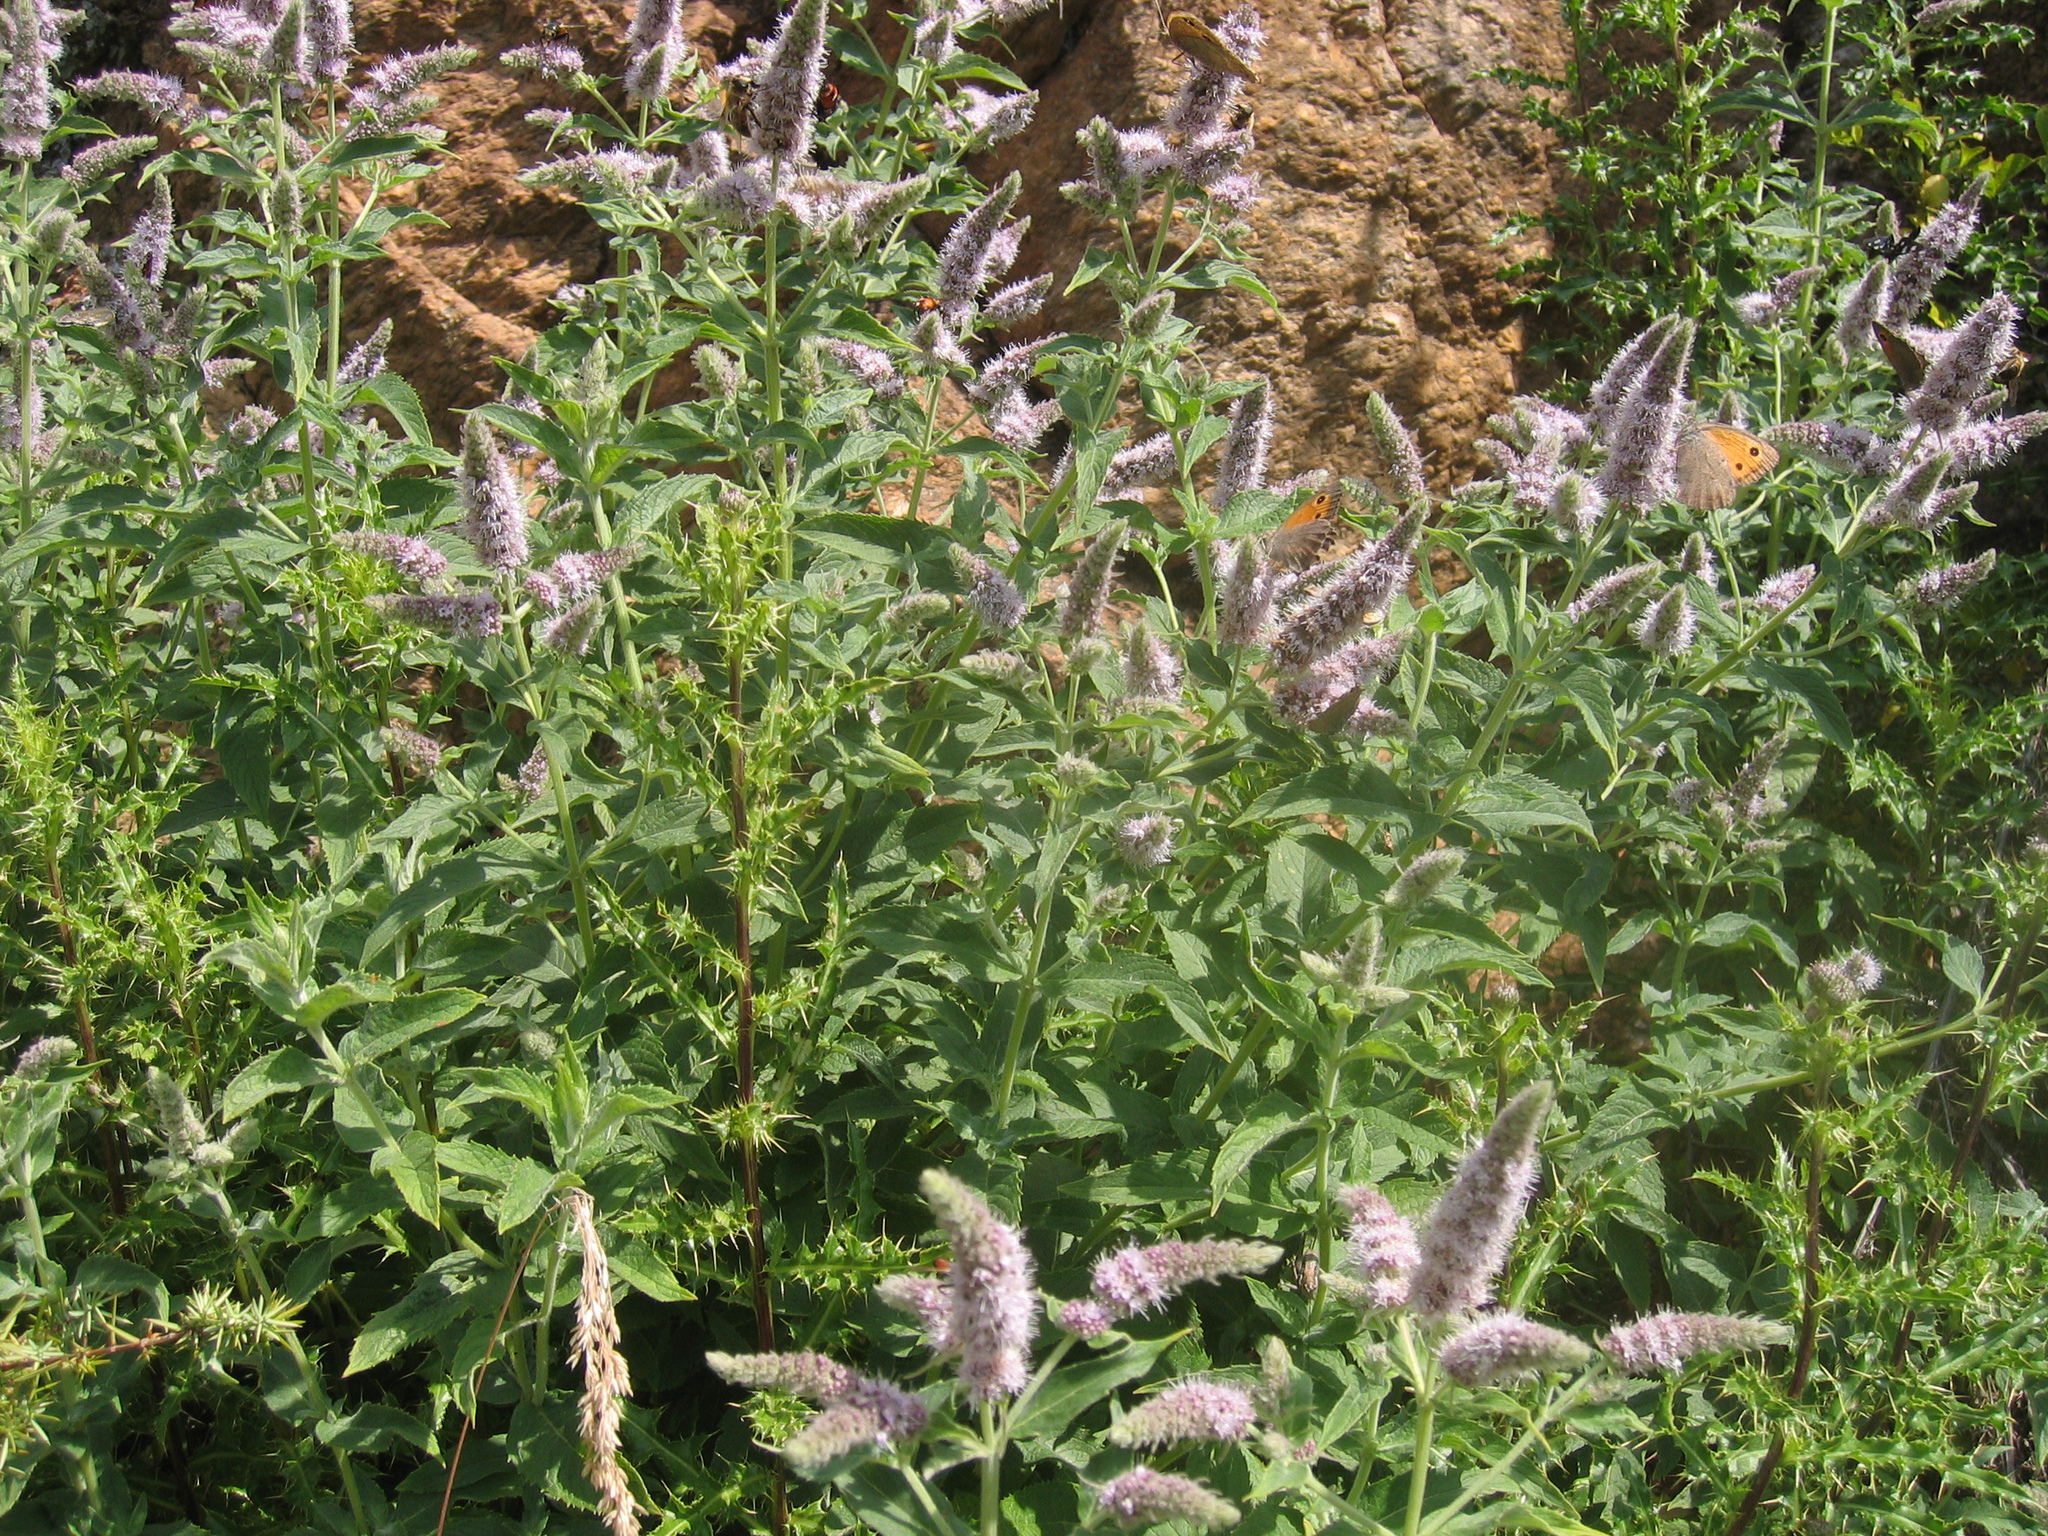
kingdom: Animalia
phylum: Arthropoda
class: Insecta
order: Lepidoptera
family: Nymphalidae
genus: Hyponephele
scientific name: Hyponephele lycaon
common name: Dusky meadow brown
